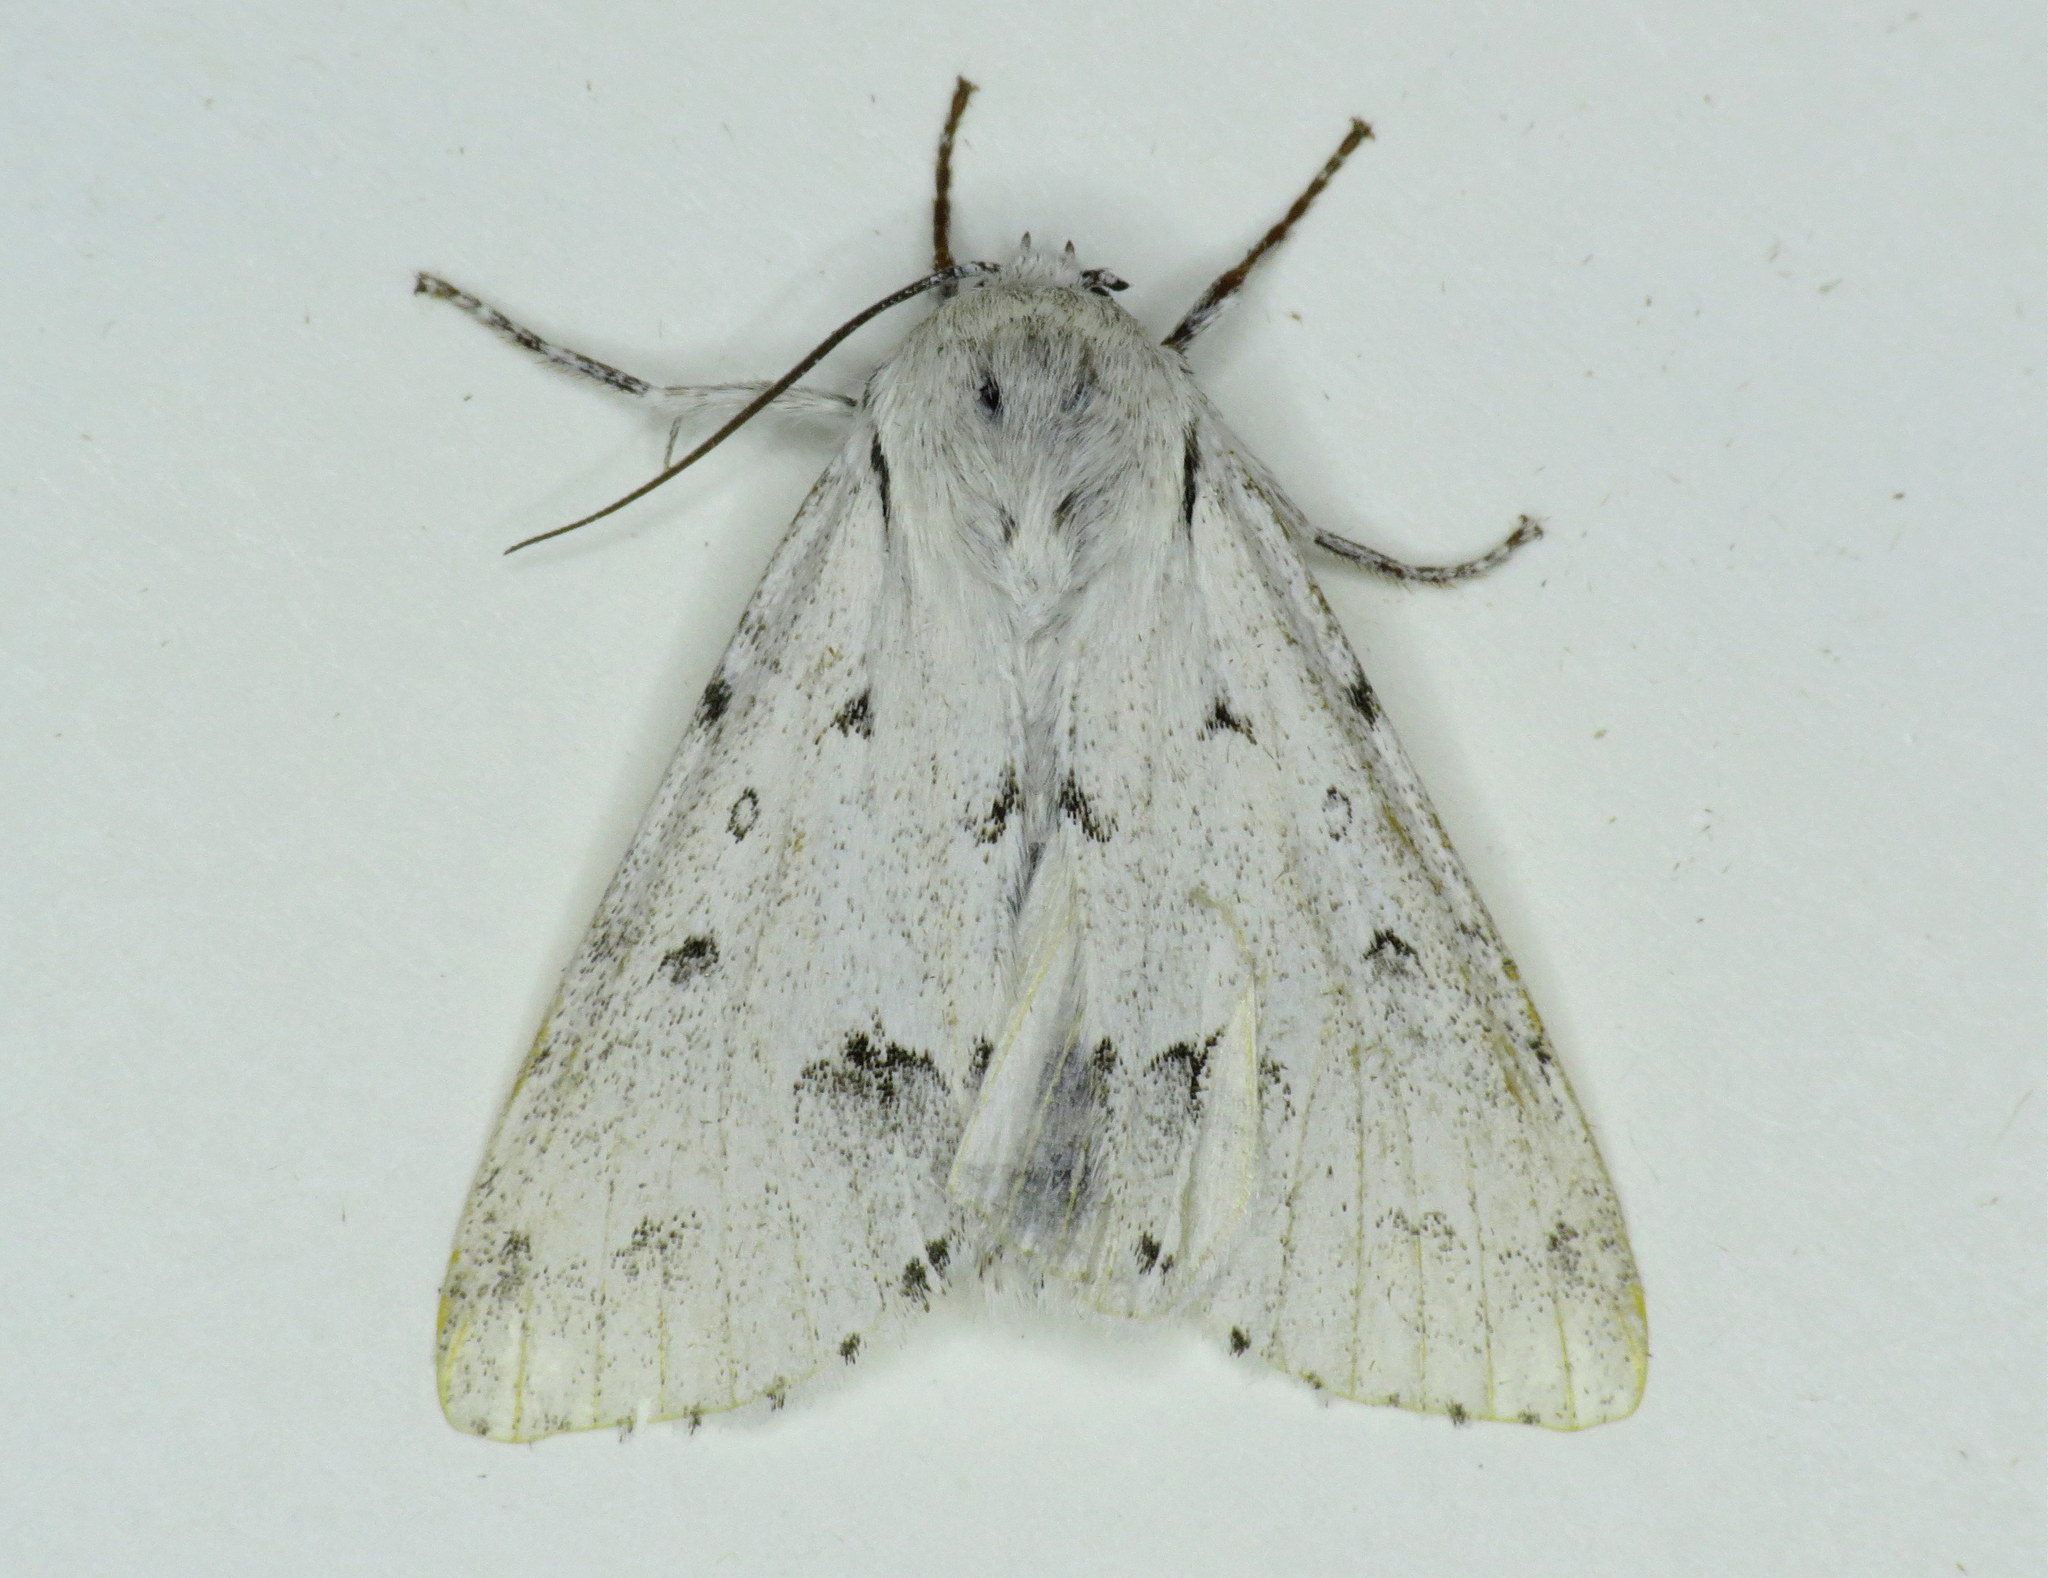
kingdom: Animalia
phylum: Arthropoda
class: Insecta
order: Lepidoptera
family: Noctuidae
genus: Acronicta
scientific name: Acronicta vulpina
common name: Miller dagger
